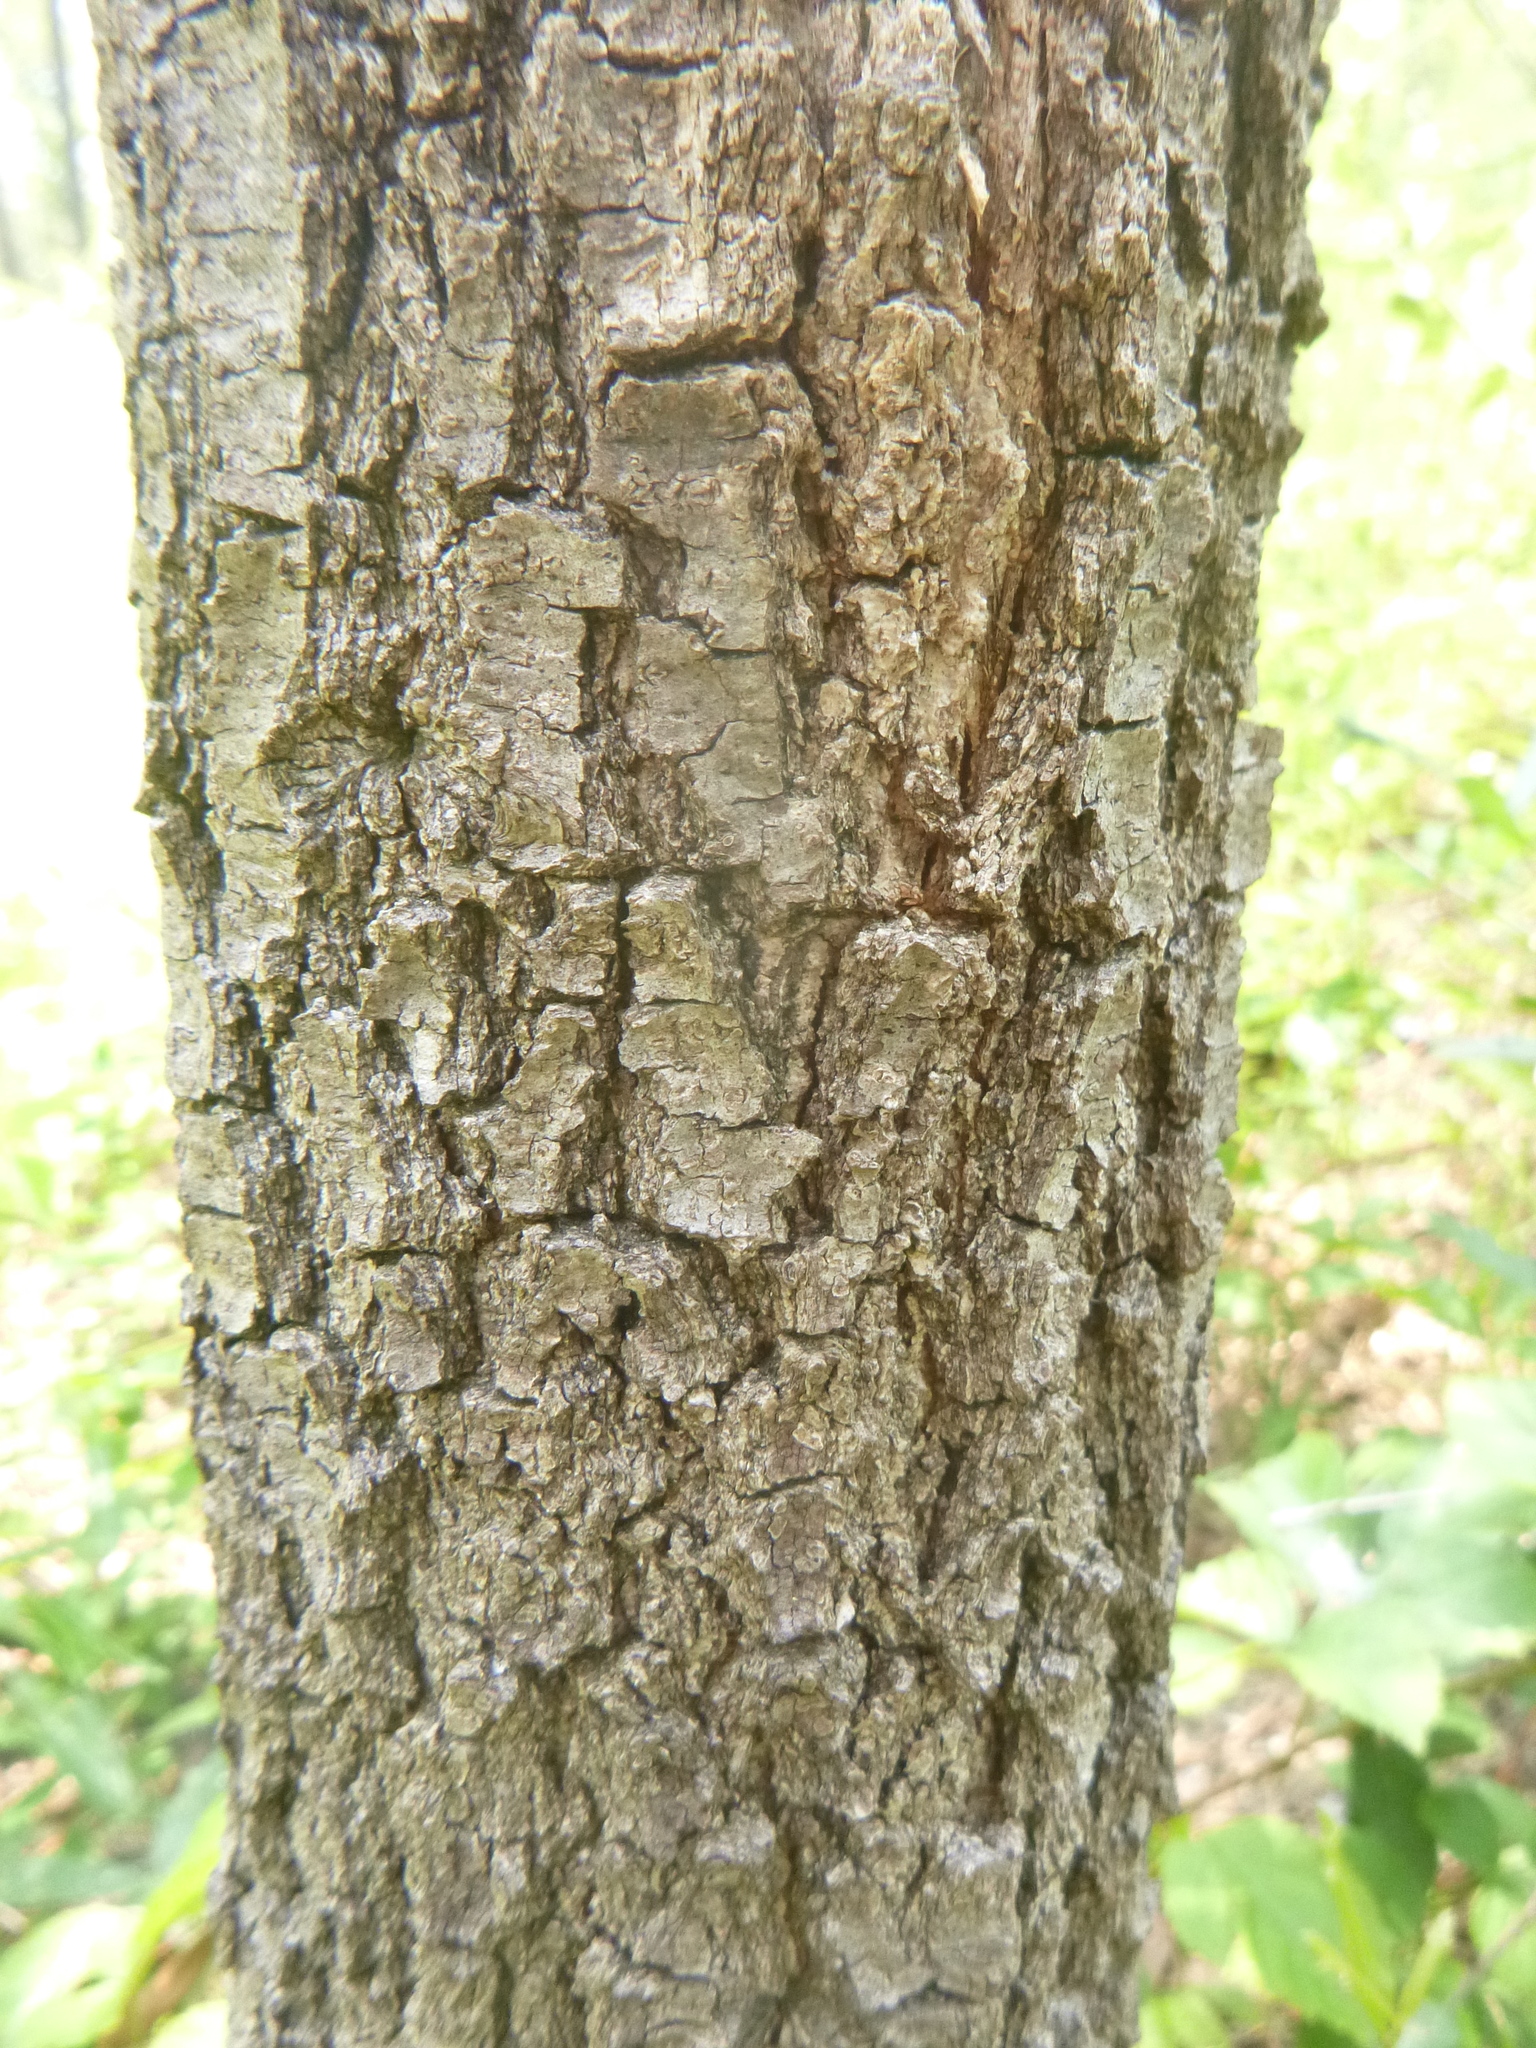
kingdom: Plantae
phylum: Tracheophyta
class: Magnoliopsida
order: Fagales
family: Fagaceae
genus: Quercus
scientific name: Quercus virginiana
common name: Southern live oak
